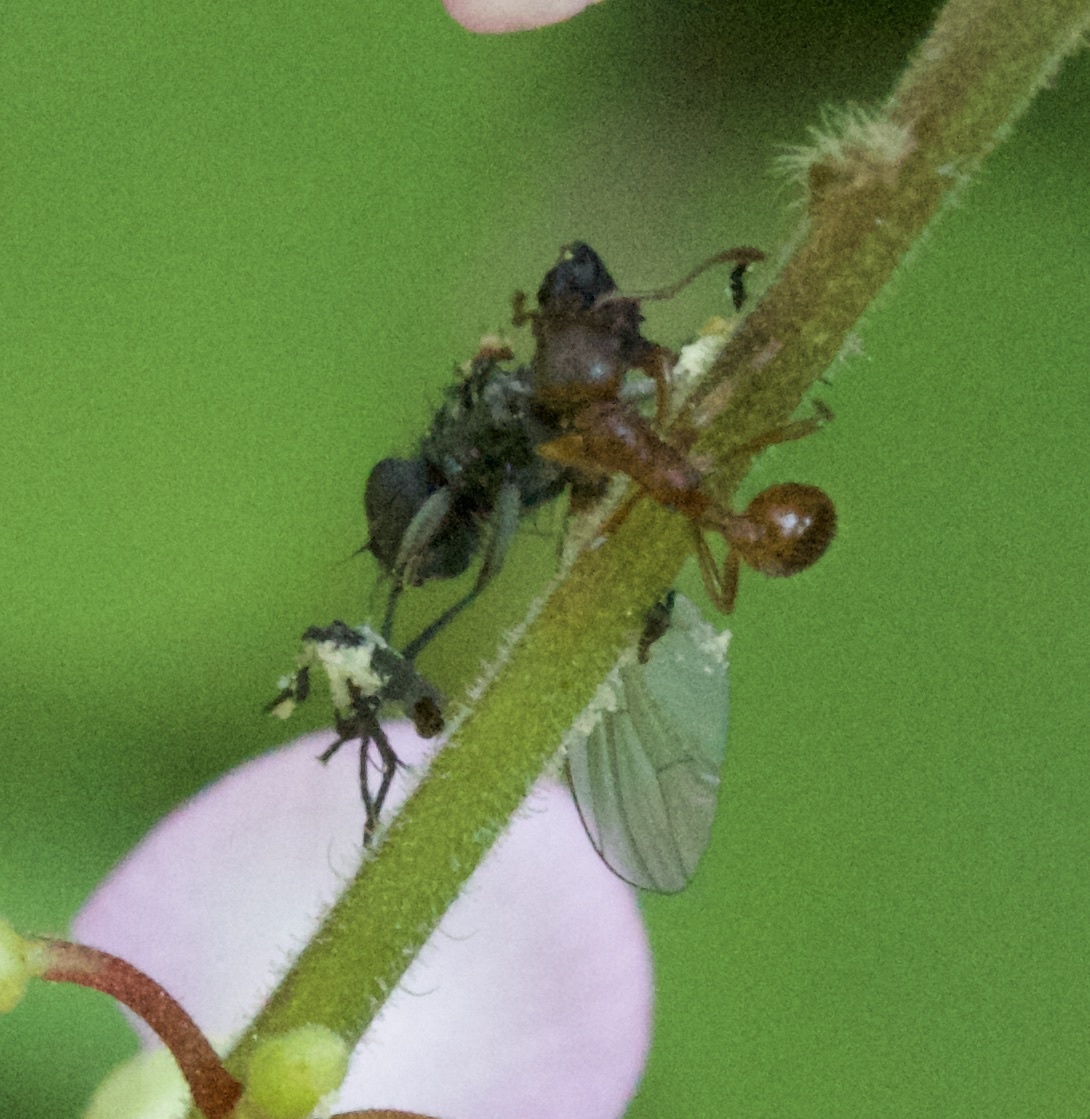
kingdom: Animalia
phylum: Arthropoda
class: Insecta
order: Hymenoptera
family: Formicidae
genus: Myrmica
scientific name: Myrmica rubra
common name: European fire ant
